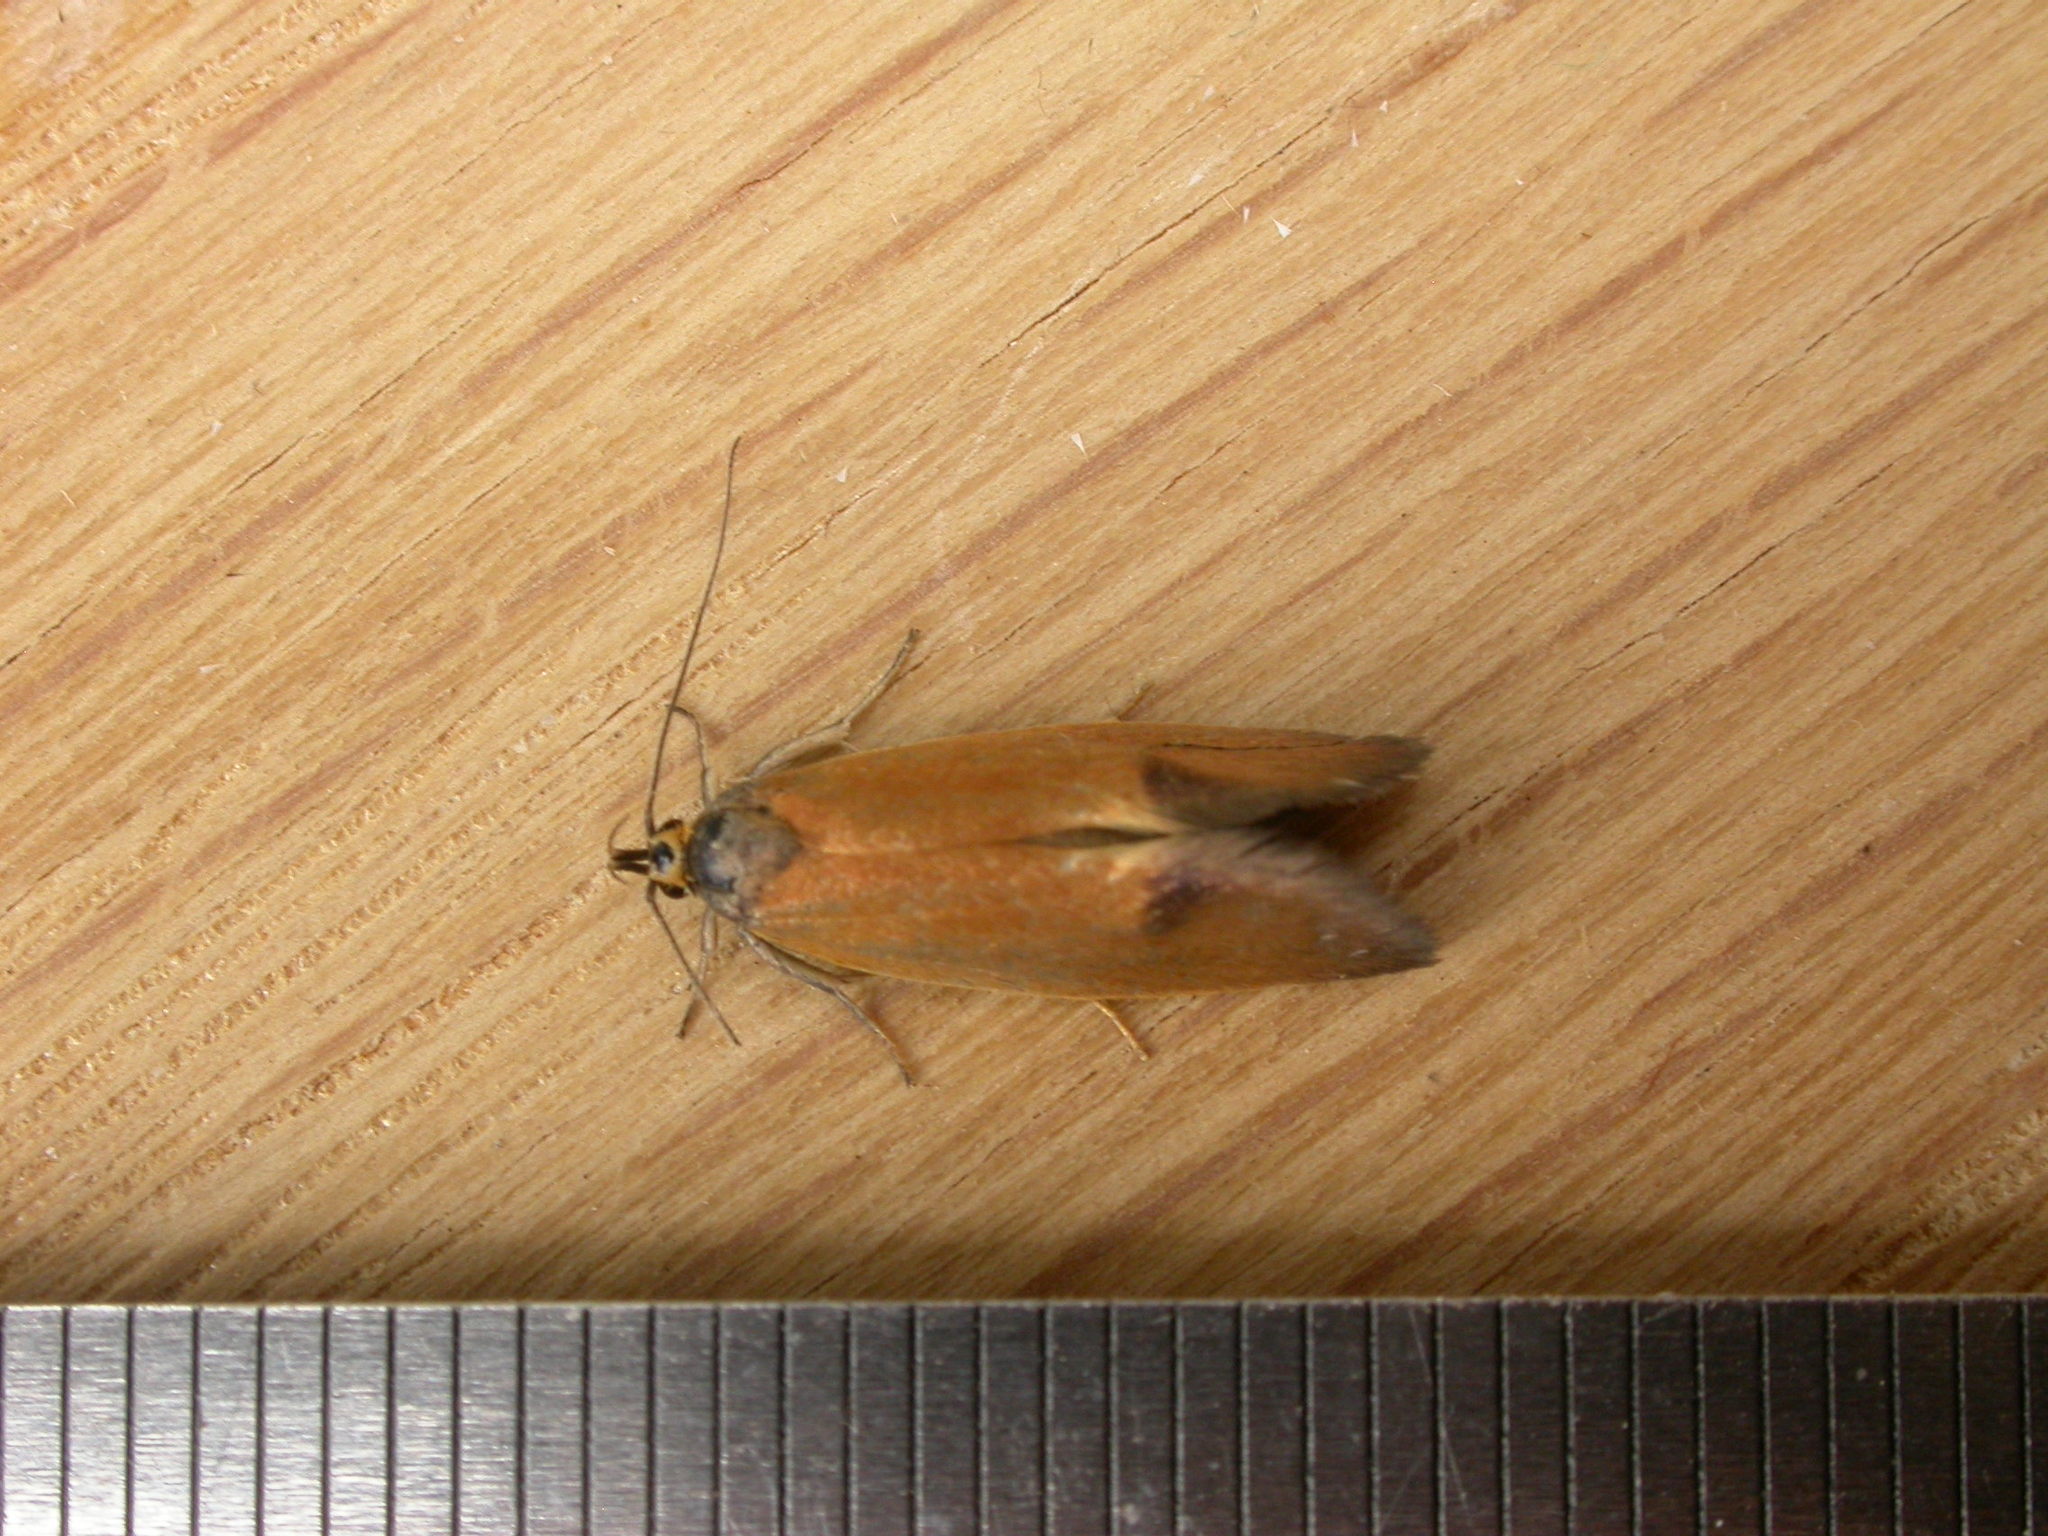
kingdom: Animalia
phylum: Arthropoda
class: Insecta
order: Lepidoptera
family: Oecophoridae
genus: Delexocha
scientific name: Delexocha ochrocausta
